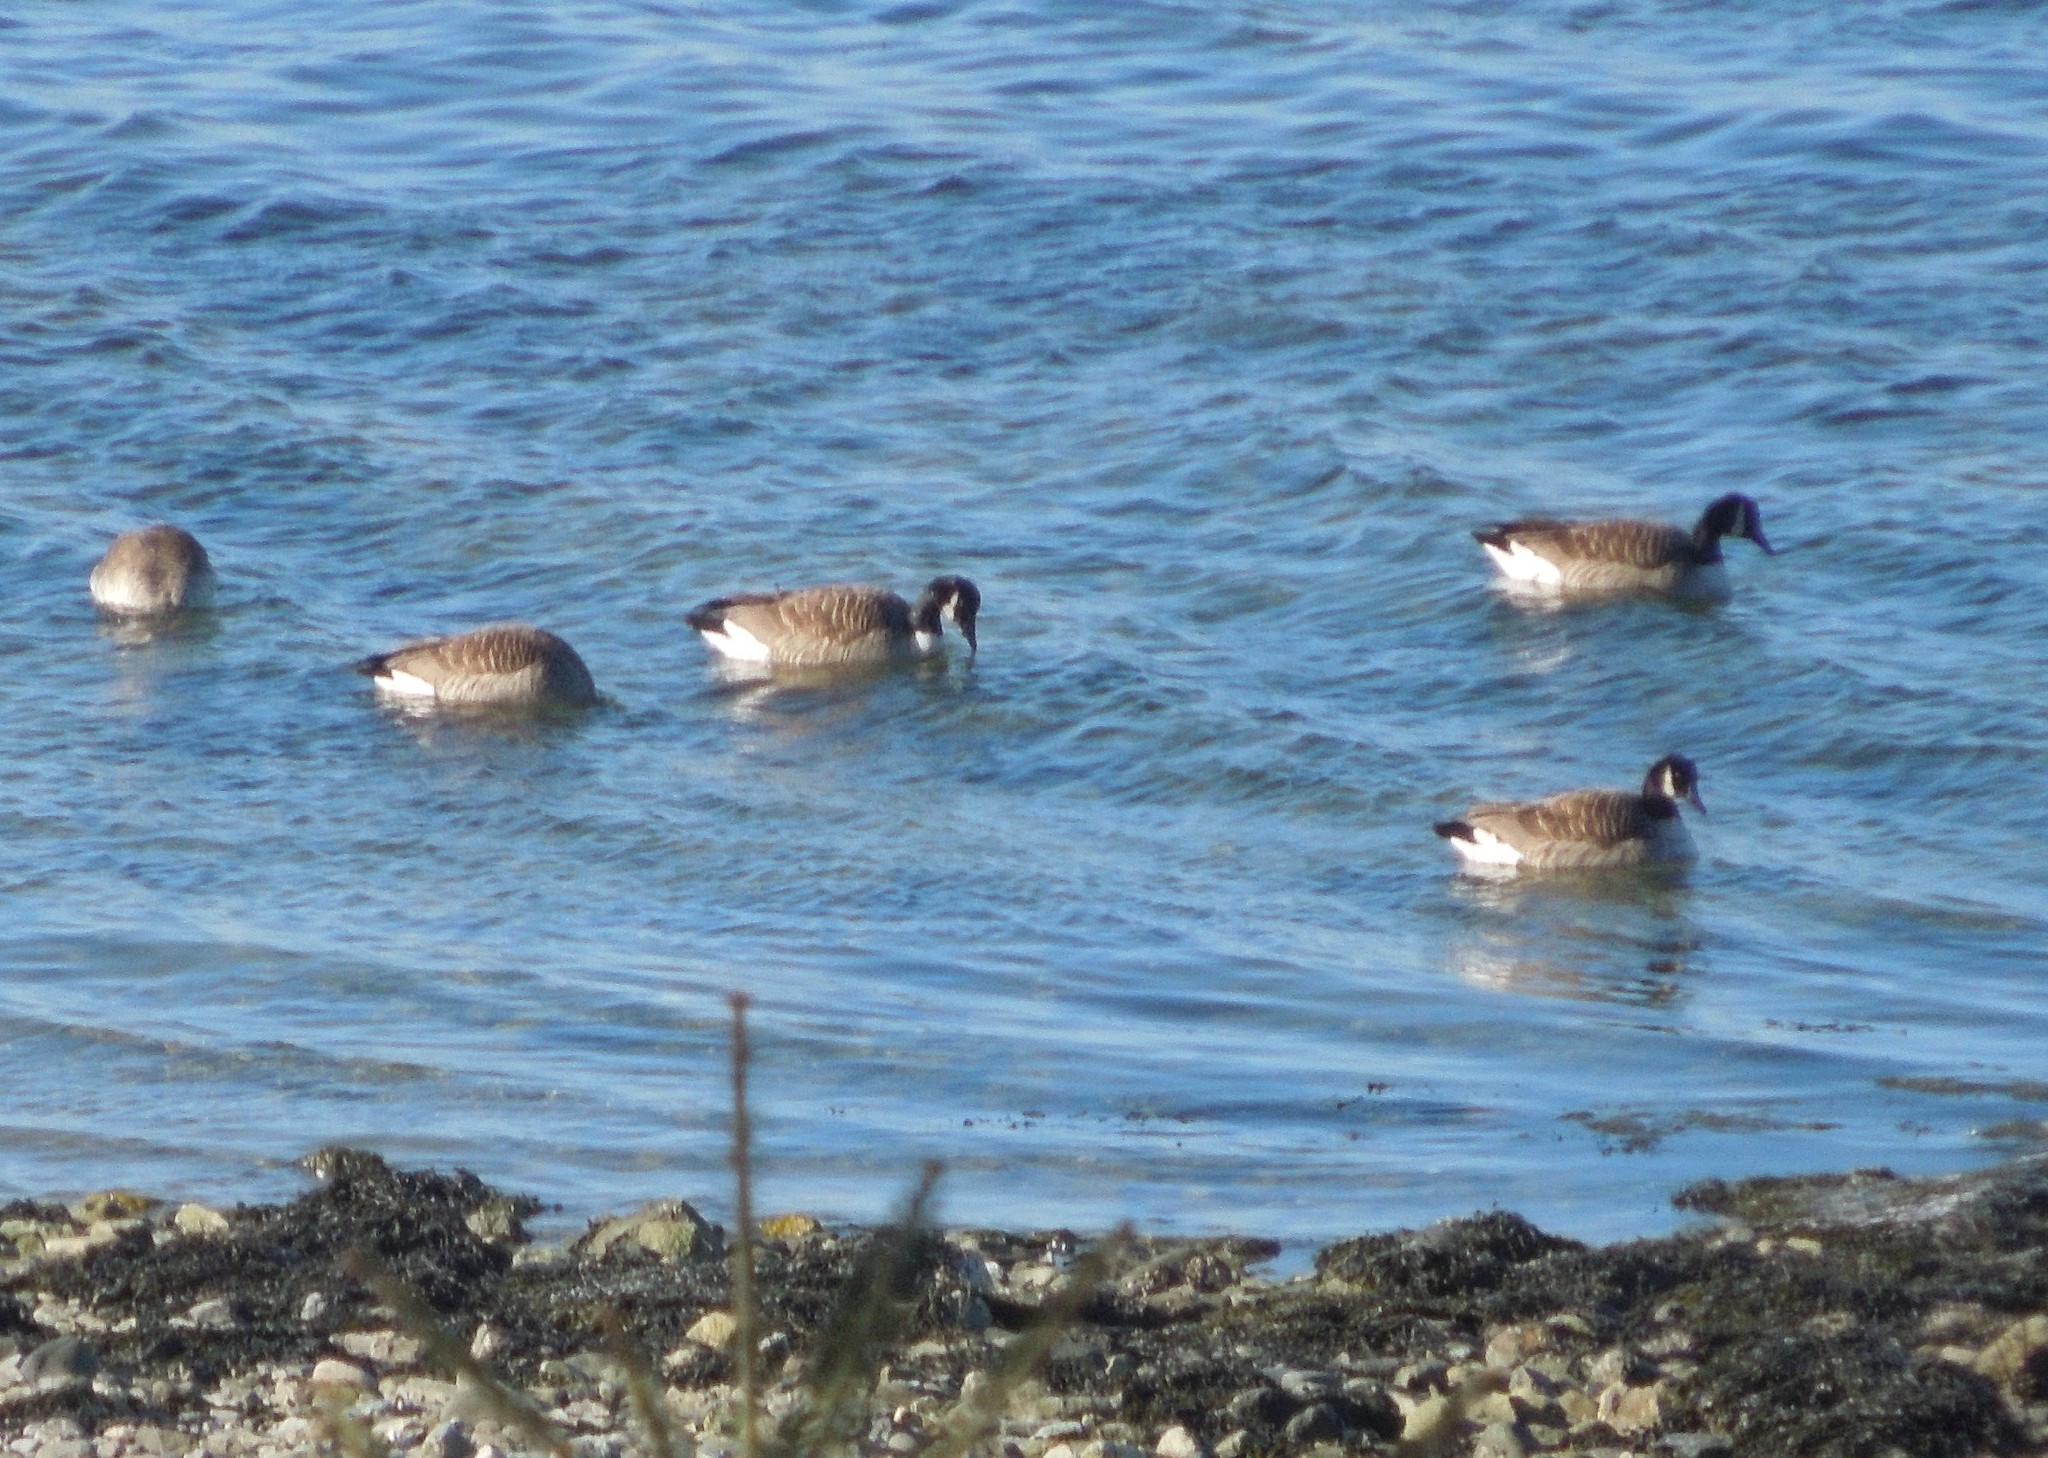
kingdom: Animalia
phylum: Chordata
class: Aves
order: Anseriformes
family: Anatidae
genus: Branta
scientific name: Branta canadensis
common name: Canada goose
